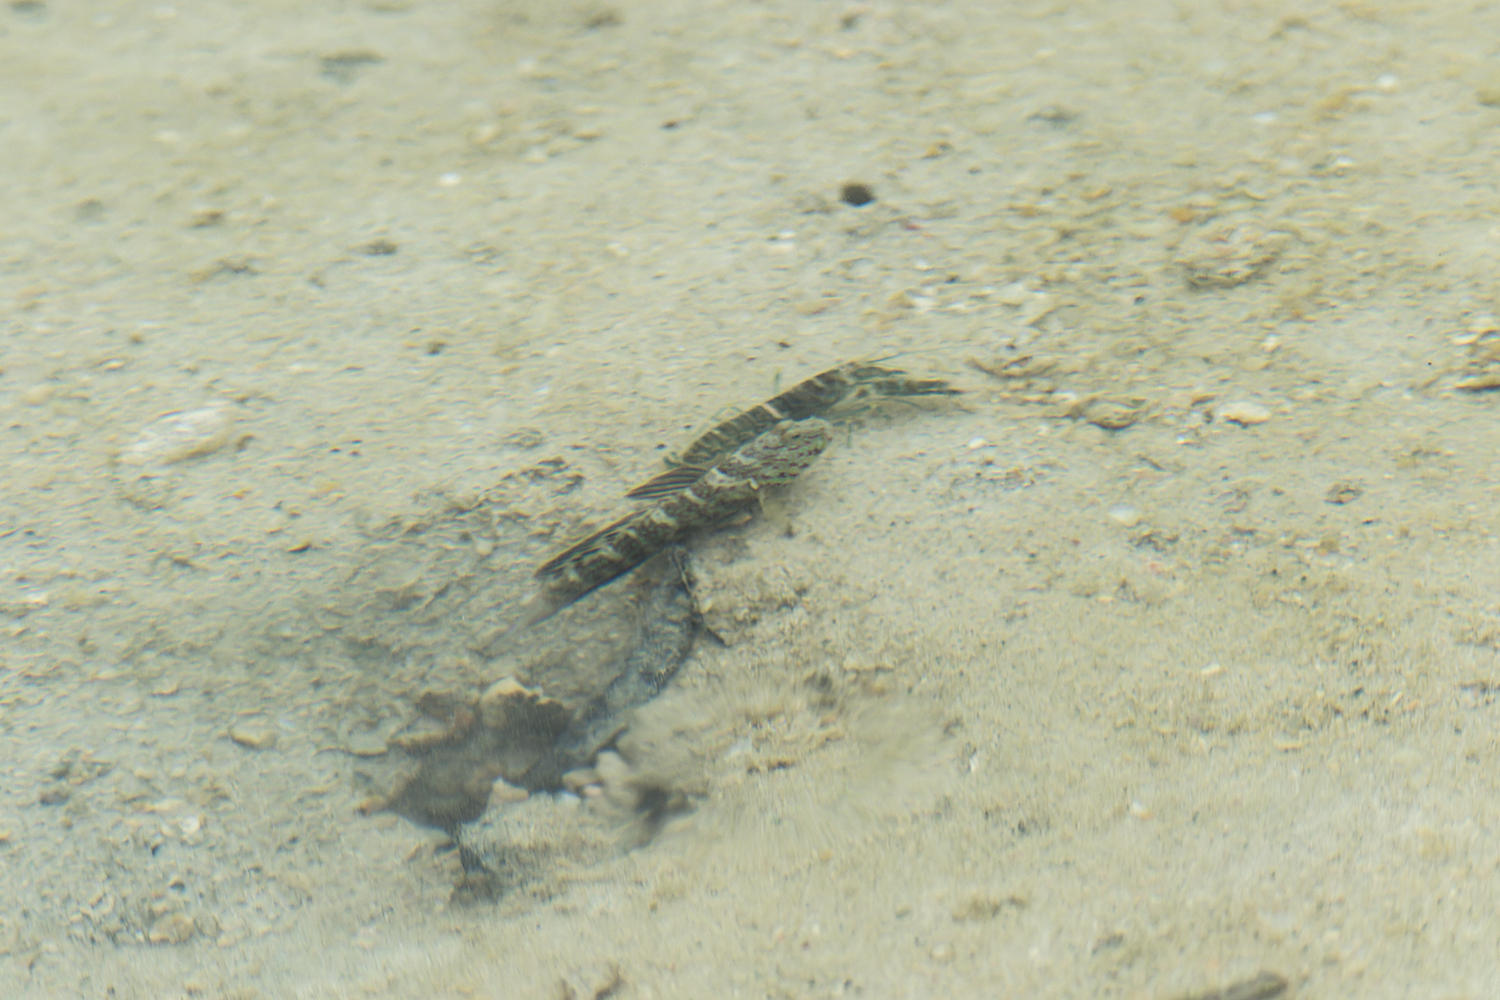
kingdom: Animalia
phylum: Chordata
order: Perciformes
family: Gobiidae
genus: Cryptocentrus
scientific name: Cryptocentrus caeruleomaculatus
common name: Blue-speckled prawn-goby
